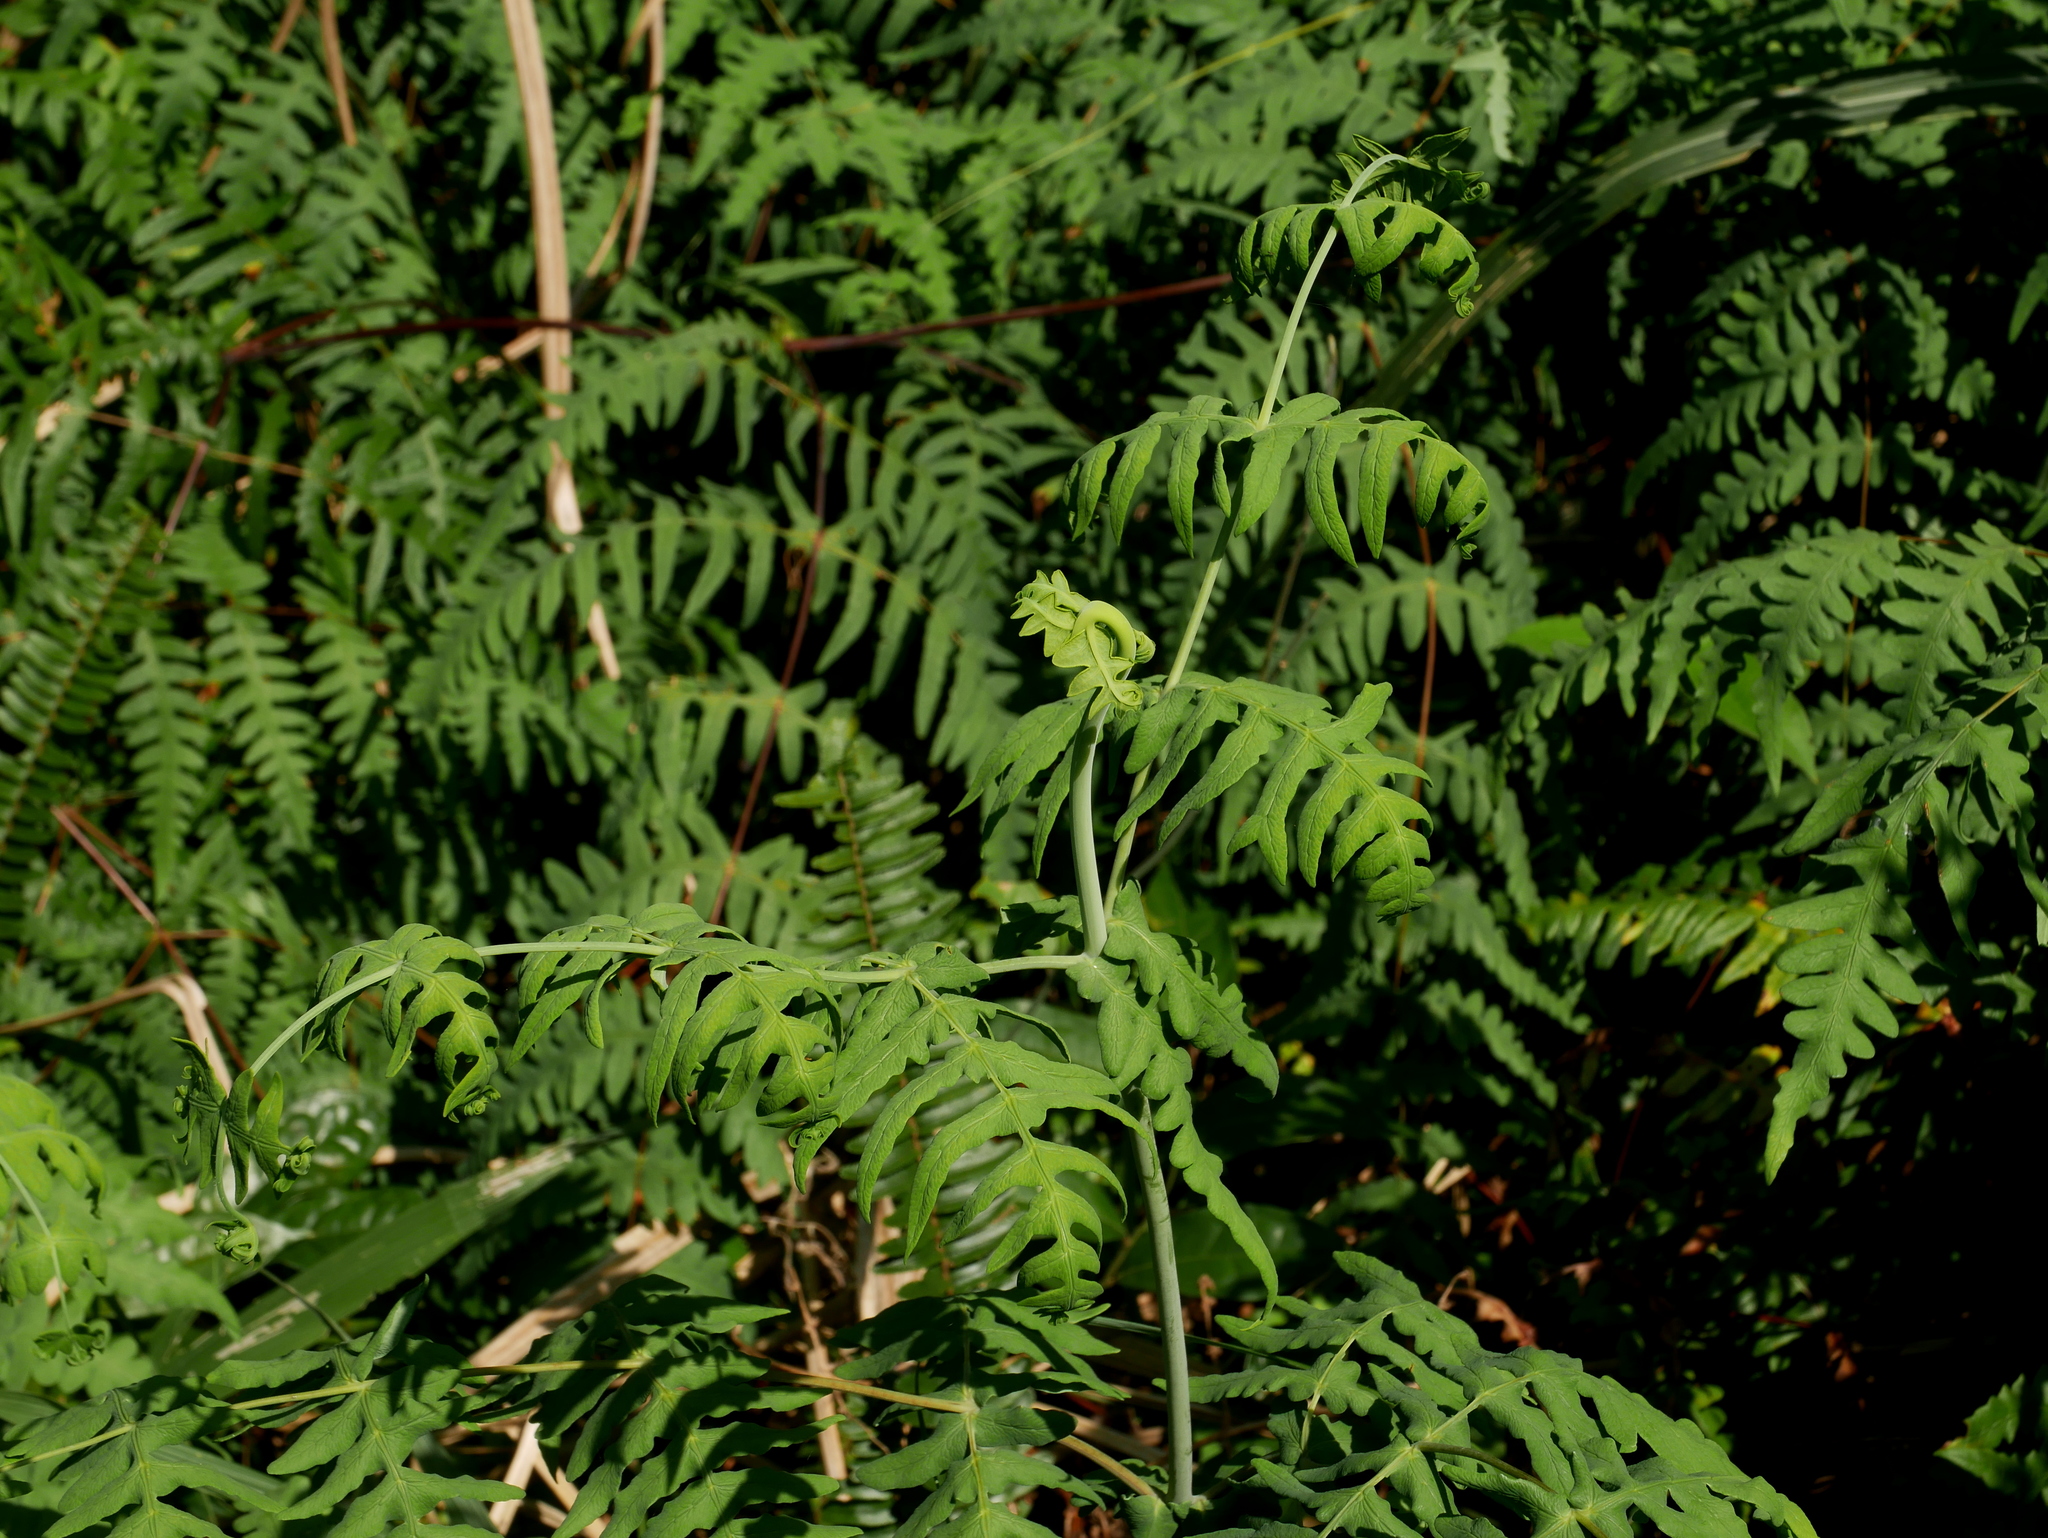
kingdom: Plantae
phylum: Tracheophyta
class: Polypodiopsida
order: Polypodiales
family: Dennstaedtiaceae
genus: Histiopteris
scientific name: Histiopteris incisa
